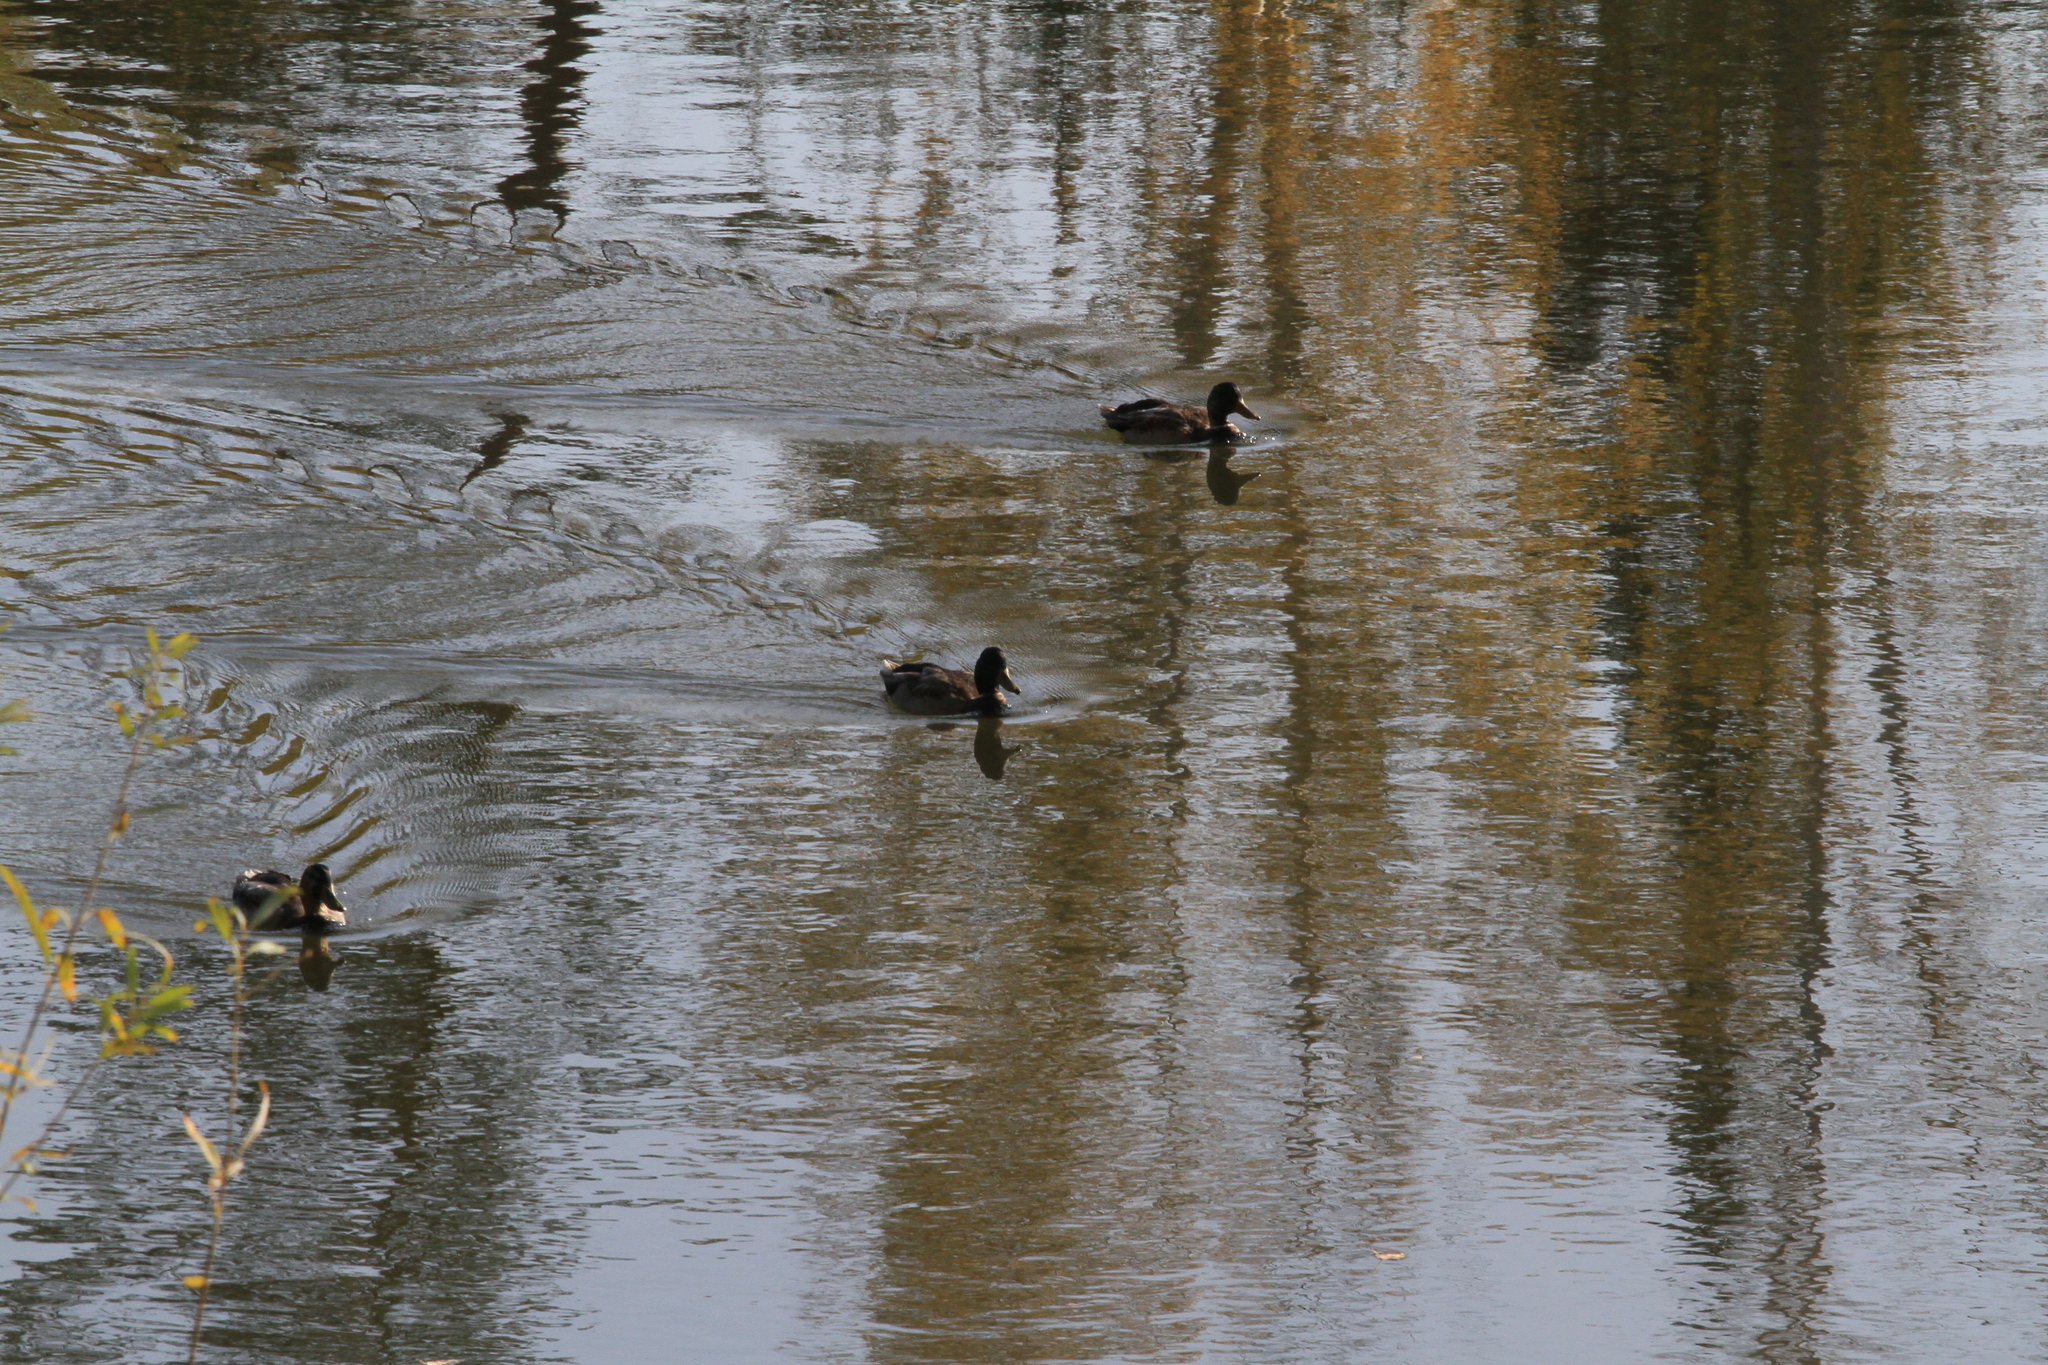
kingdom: Animalia
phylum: Chordata
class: Aves
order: Anseriformes
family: Anatidae
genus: Anas
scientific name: Anas platyrhynchos
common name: Mallard
